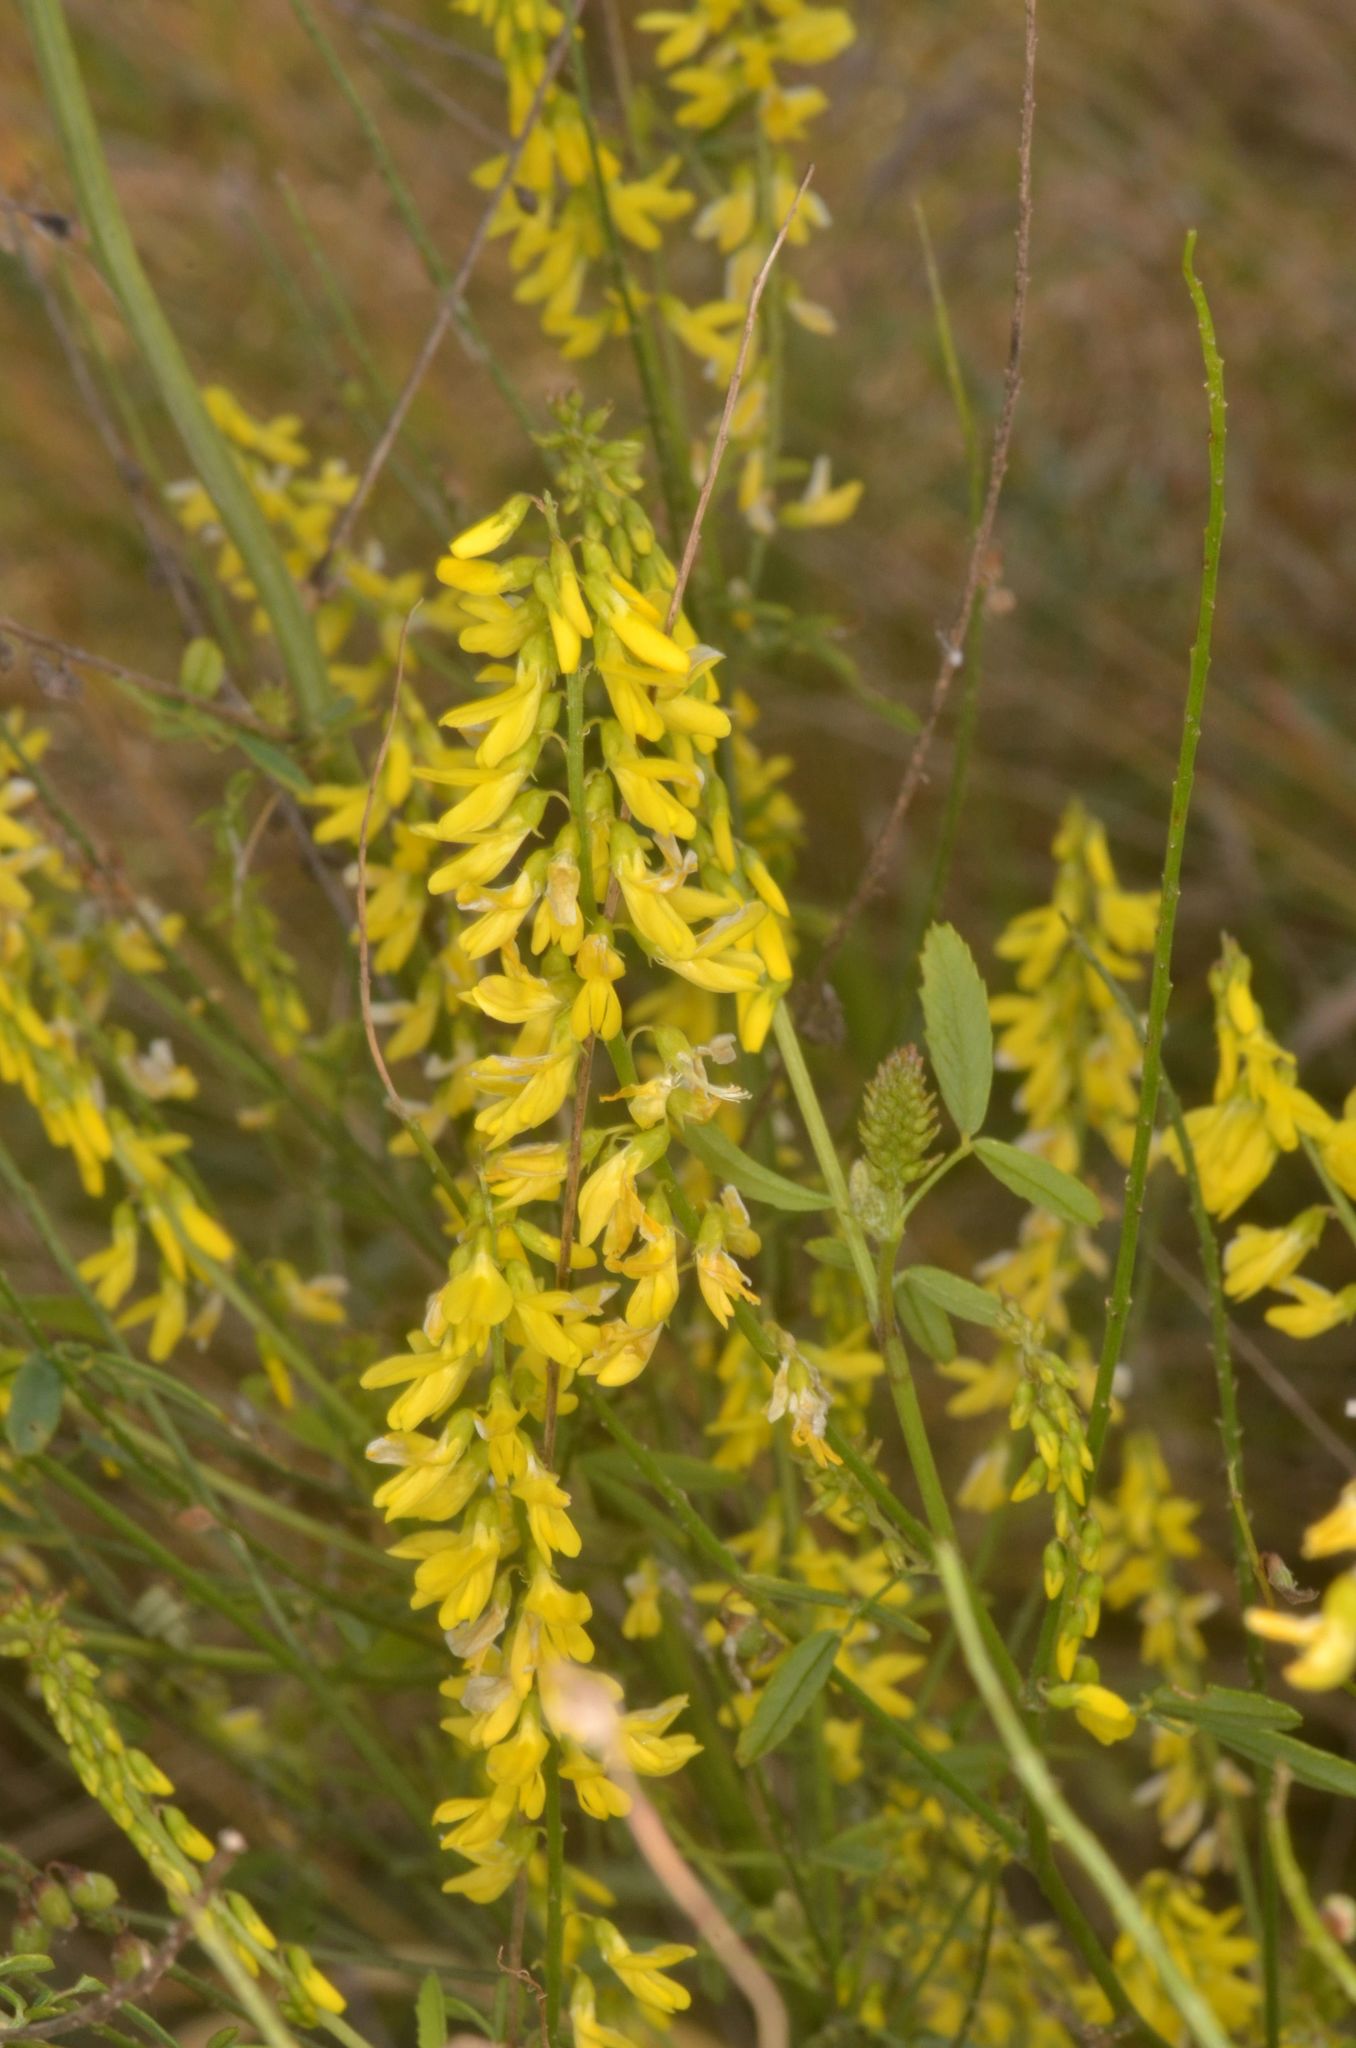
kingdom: Plantae
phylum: Tracheophyta
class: Magnoliopsida
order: Fabales
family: Fabaceae
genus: Melilotus
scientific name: Melilotus officinalis
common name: Sweetclover
